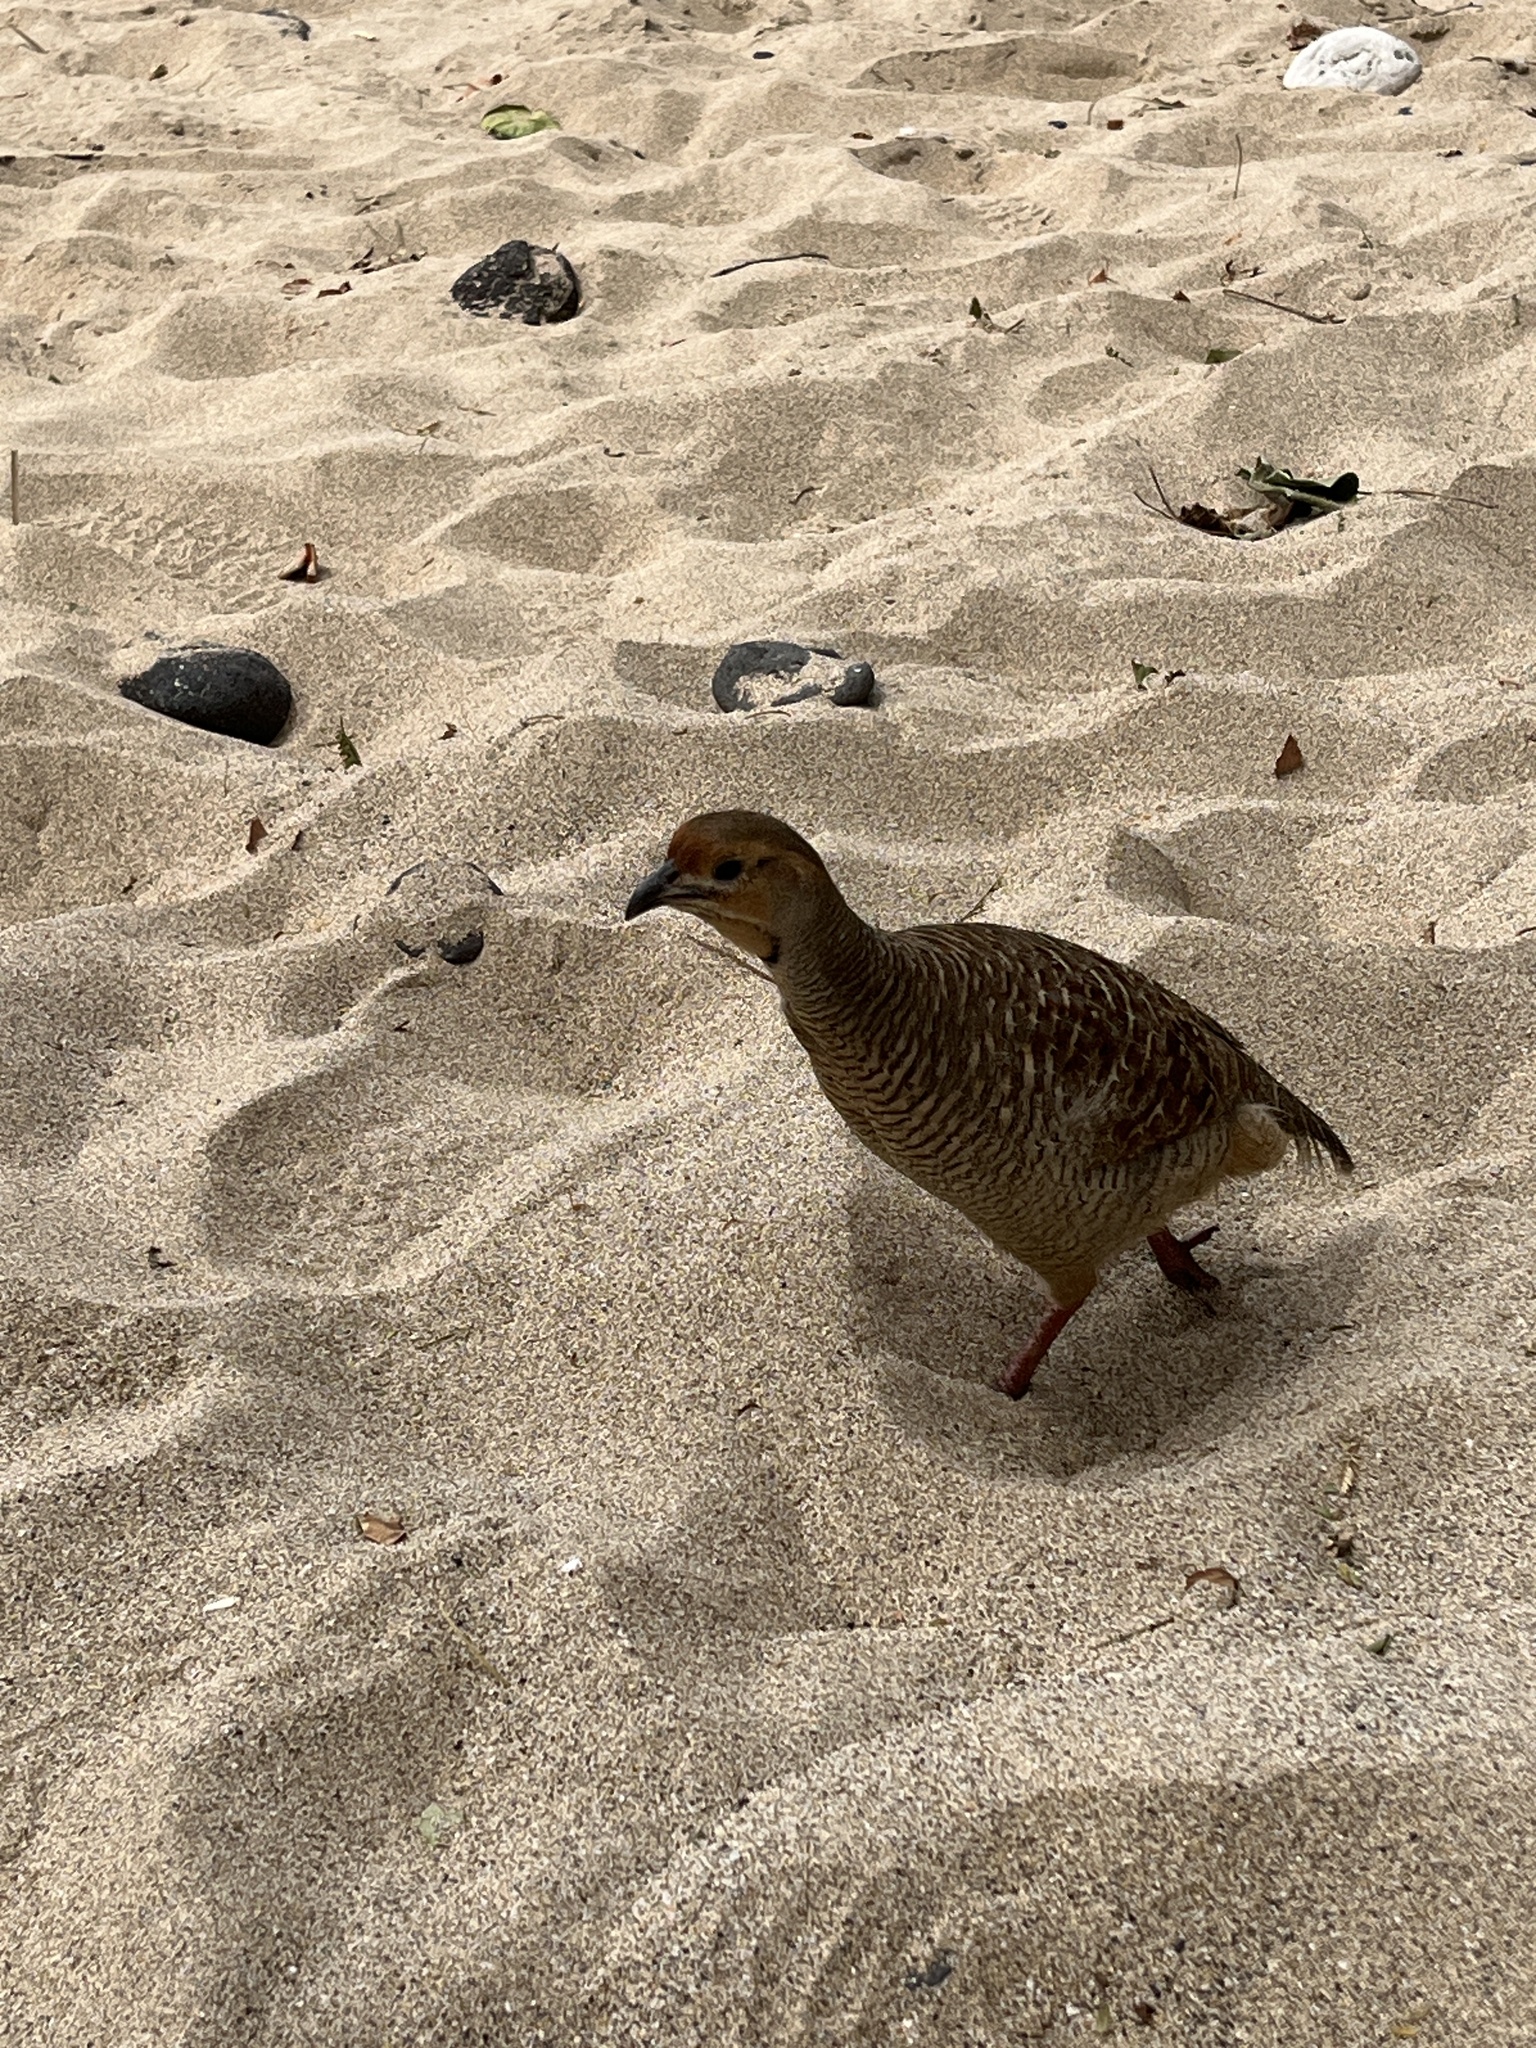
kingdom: Animalia
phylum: Chordata
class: Aves
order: Galliformes
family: Phasianidae
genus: Ortygornis
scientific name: Ortygornis pondicerianus
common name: Grey francolin
